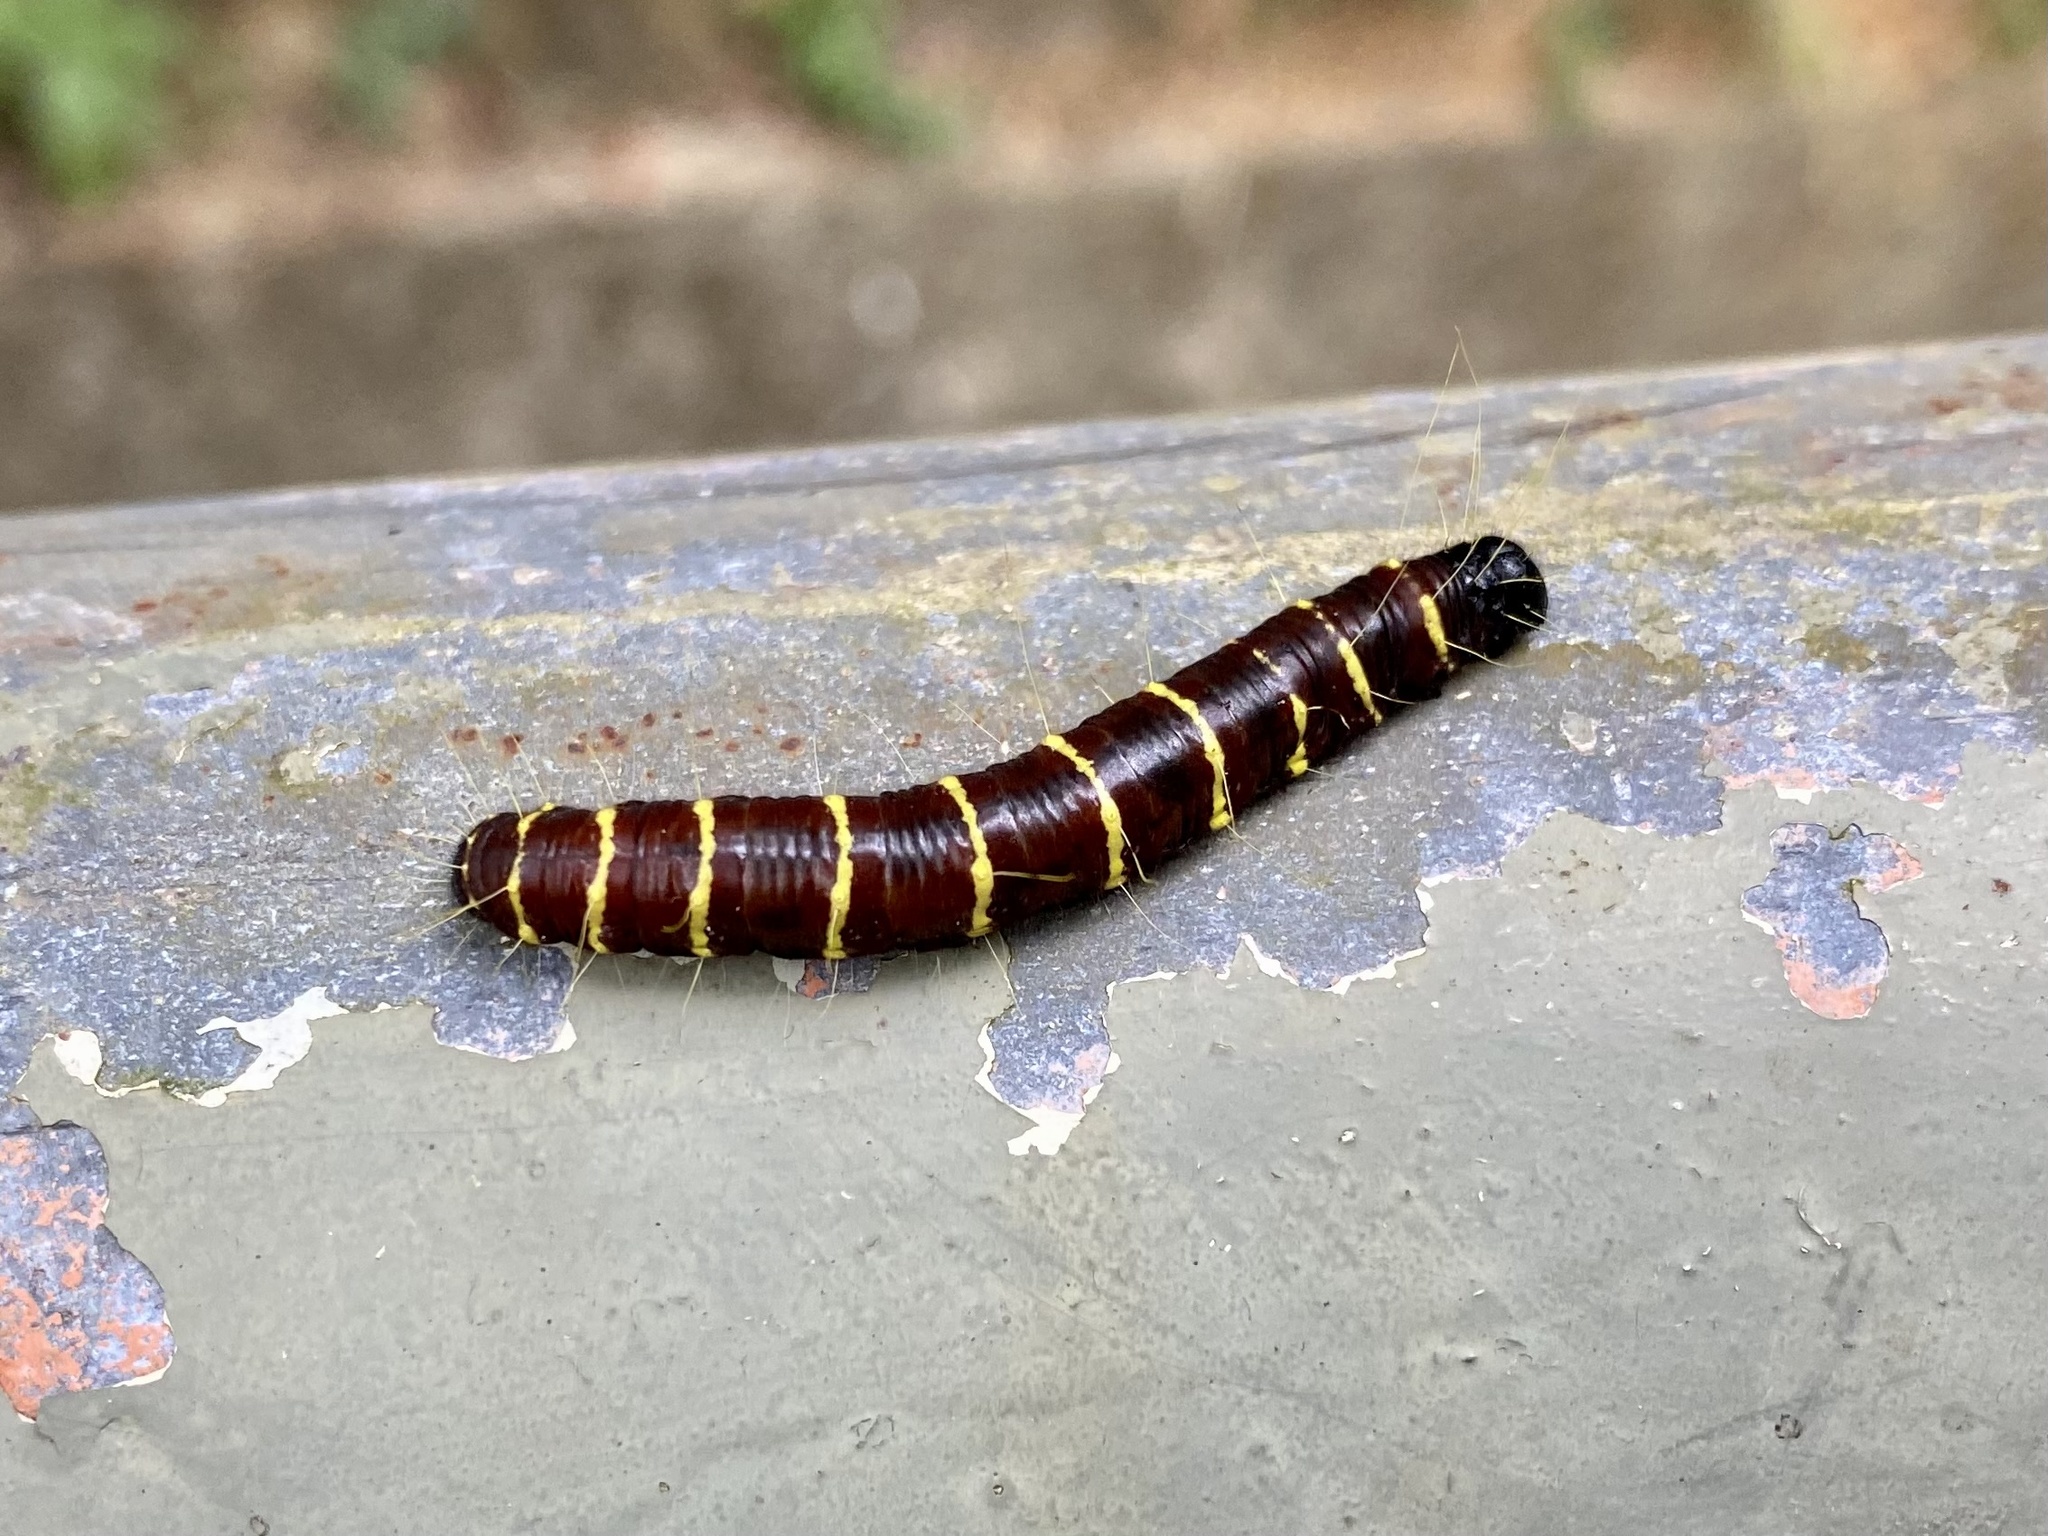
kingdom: Animalia
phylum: Arthropoda
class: Insecta
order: Lepidoptera
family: Pieridae
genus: Delias
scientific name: Delias pasithoe
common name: Red-base jezebel
